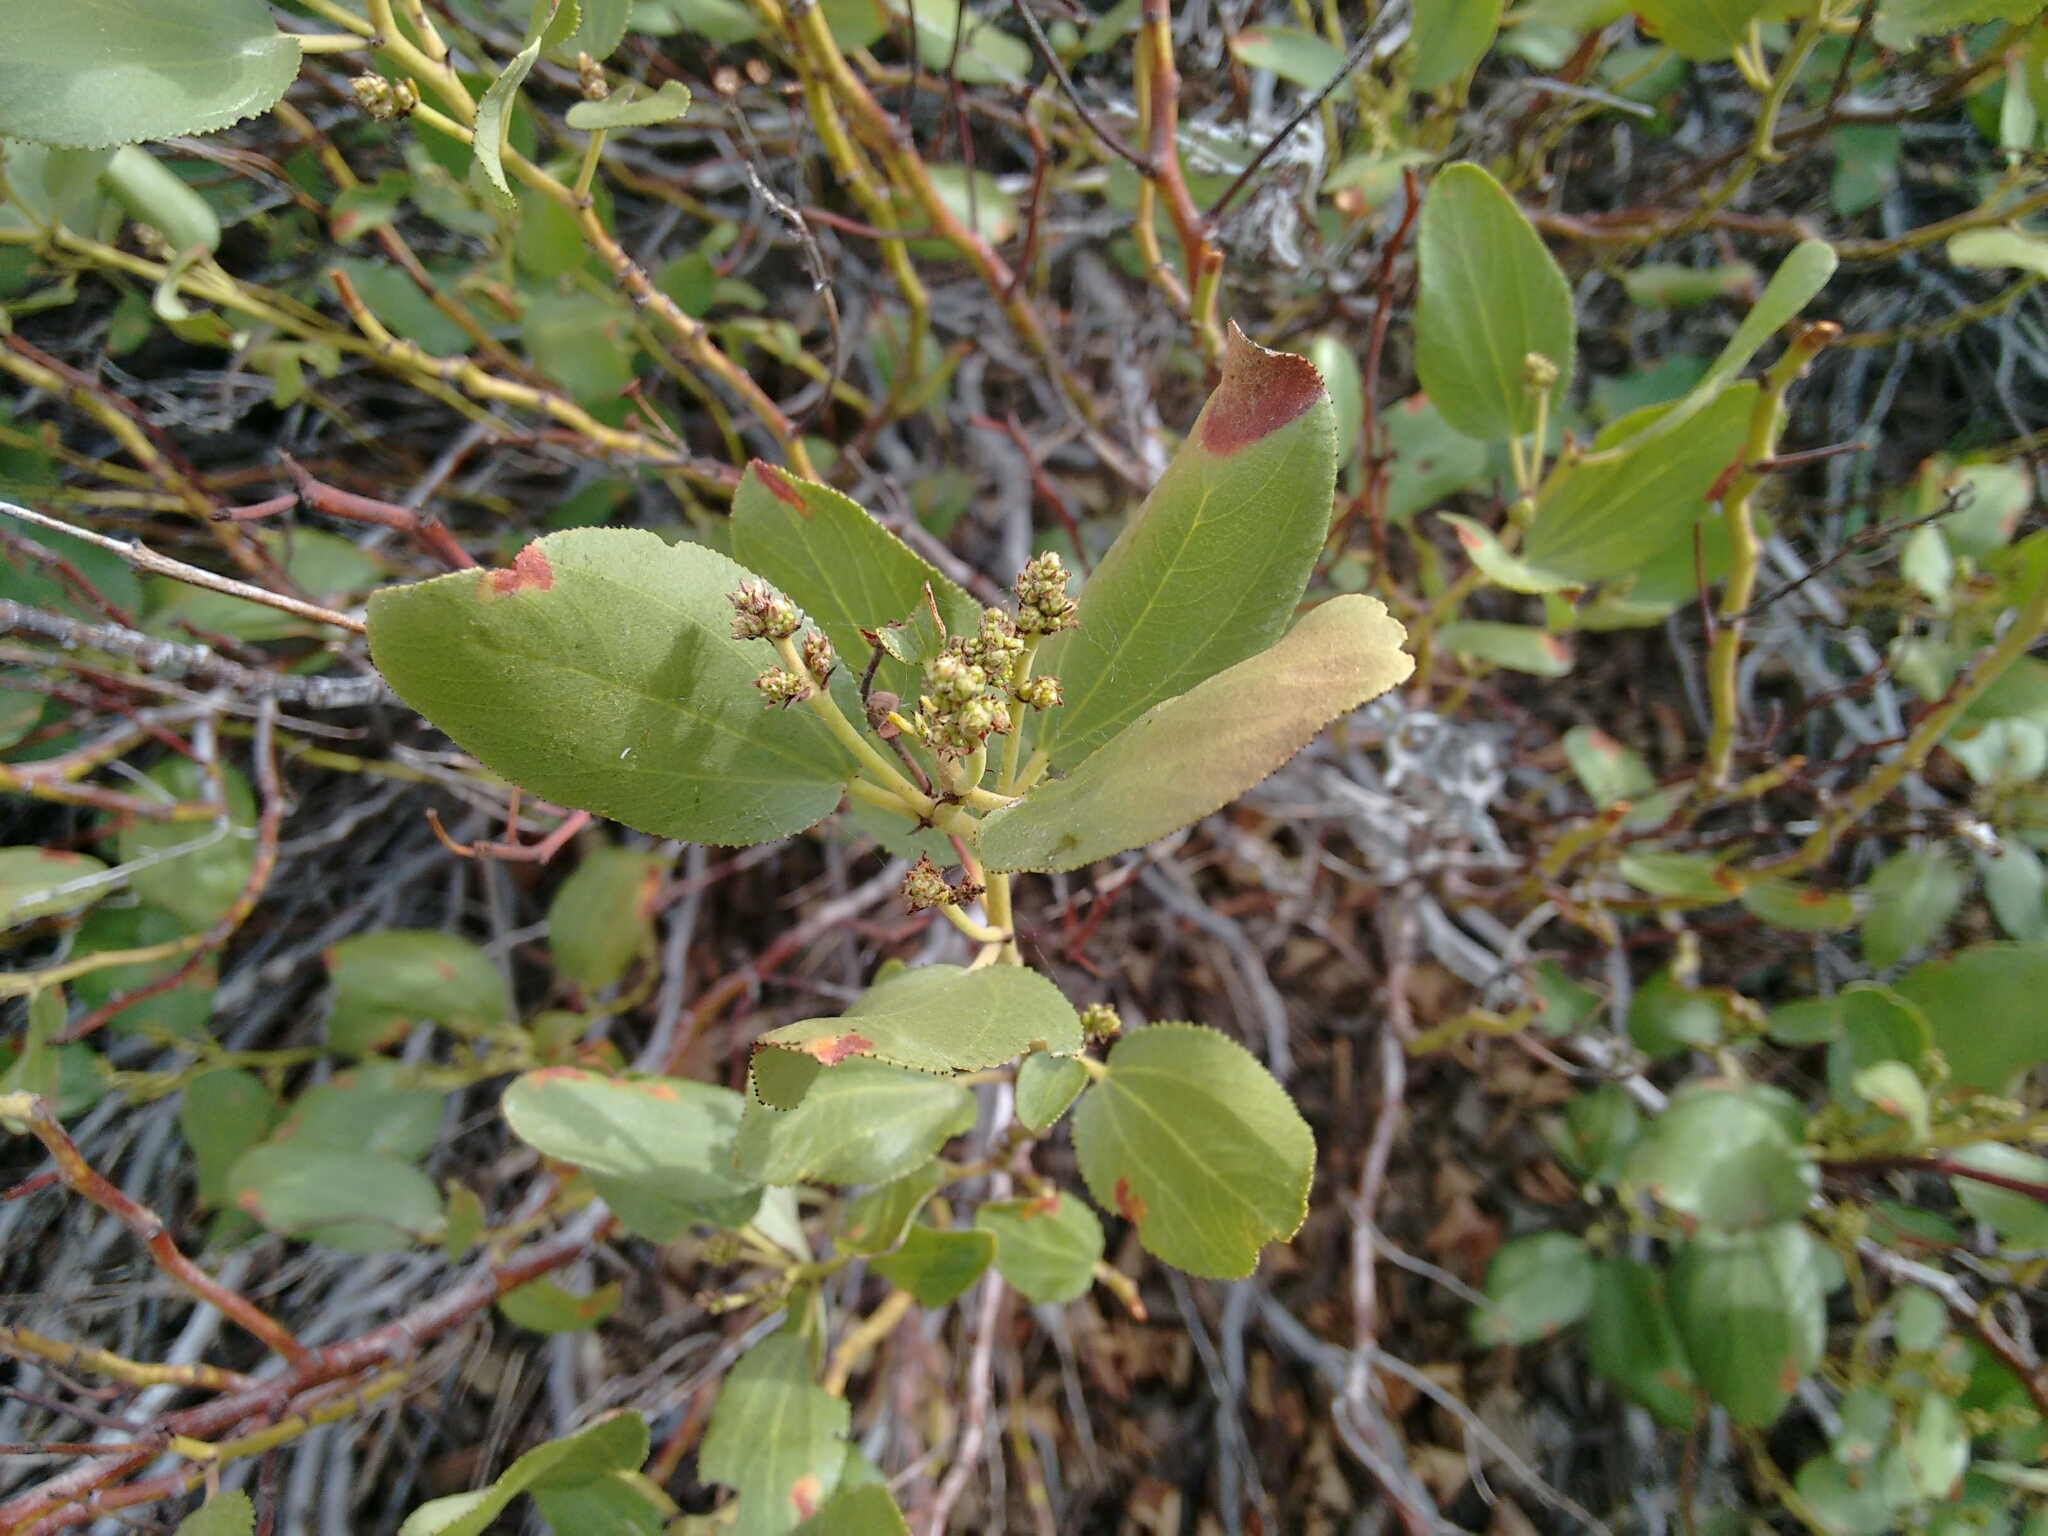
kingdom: Plantae
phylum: Tracheophyta
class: Magnoliopsida
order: Rosales
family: Rhamnaceae
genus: Ceanothus
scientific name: Ceanothus velutinus
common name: Snowbrush
